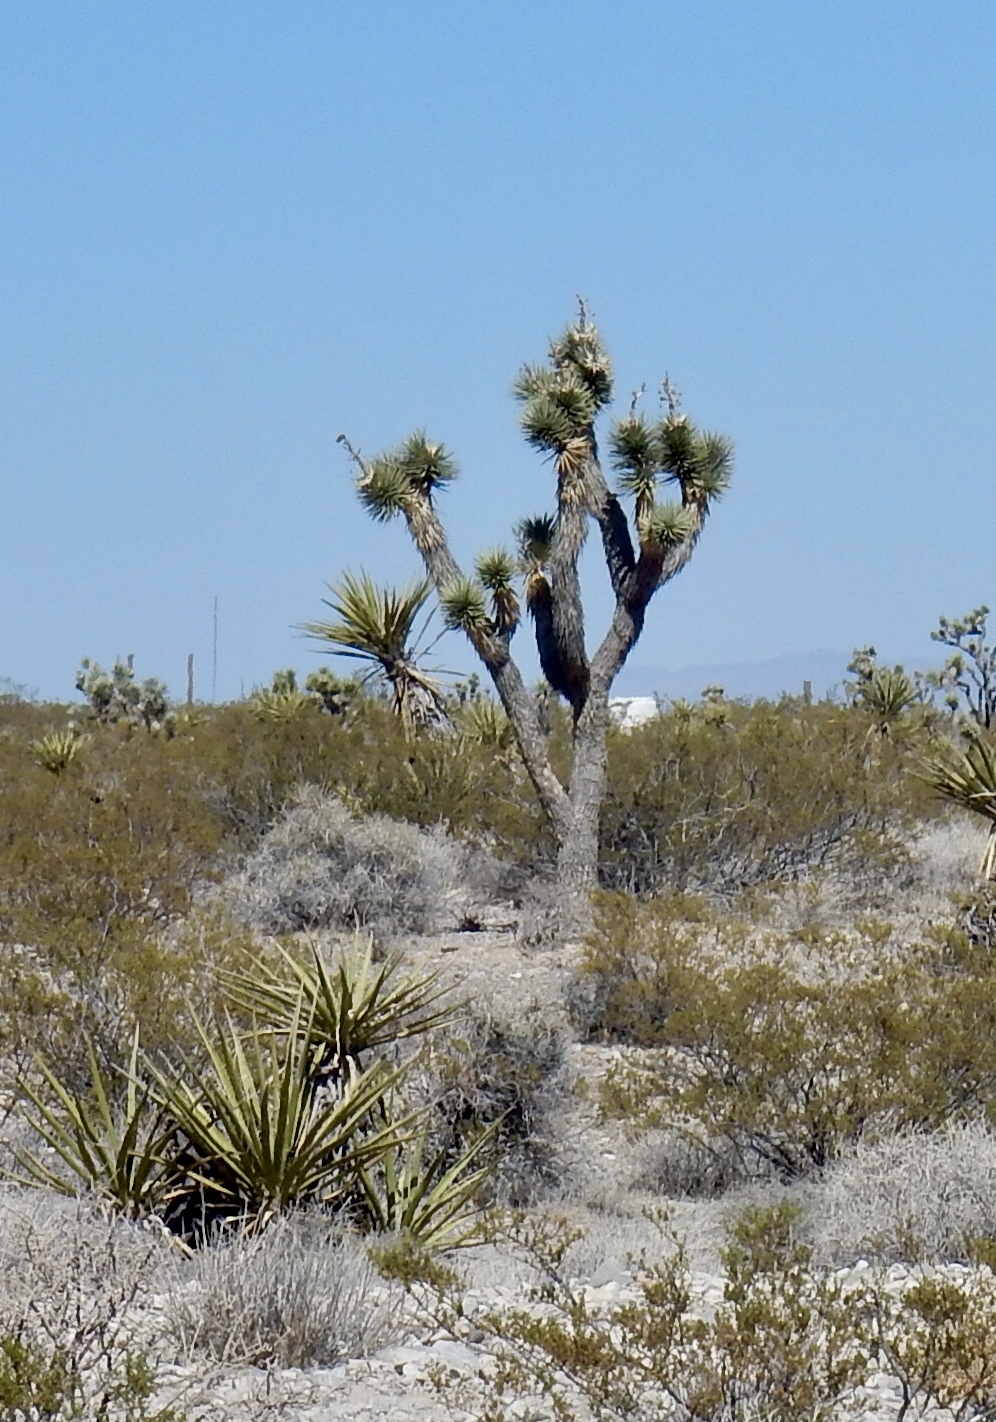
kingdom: Plantae
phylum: Tracheophyta
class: Liliopsida
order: Asparagales
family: Asparagaceae
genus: Yucca
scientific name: Yucca brevifolia
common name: Joshua tree
